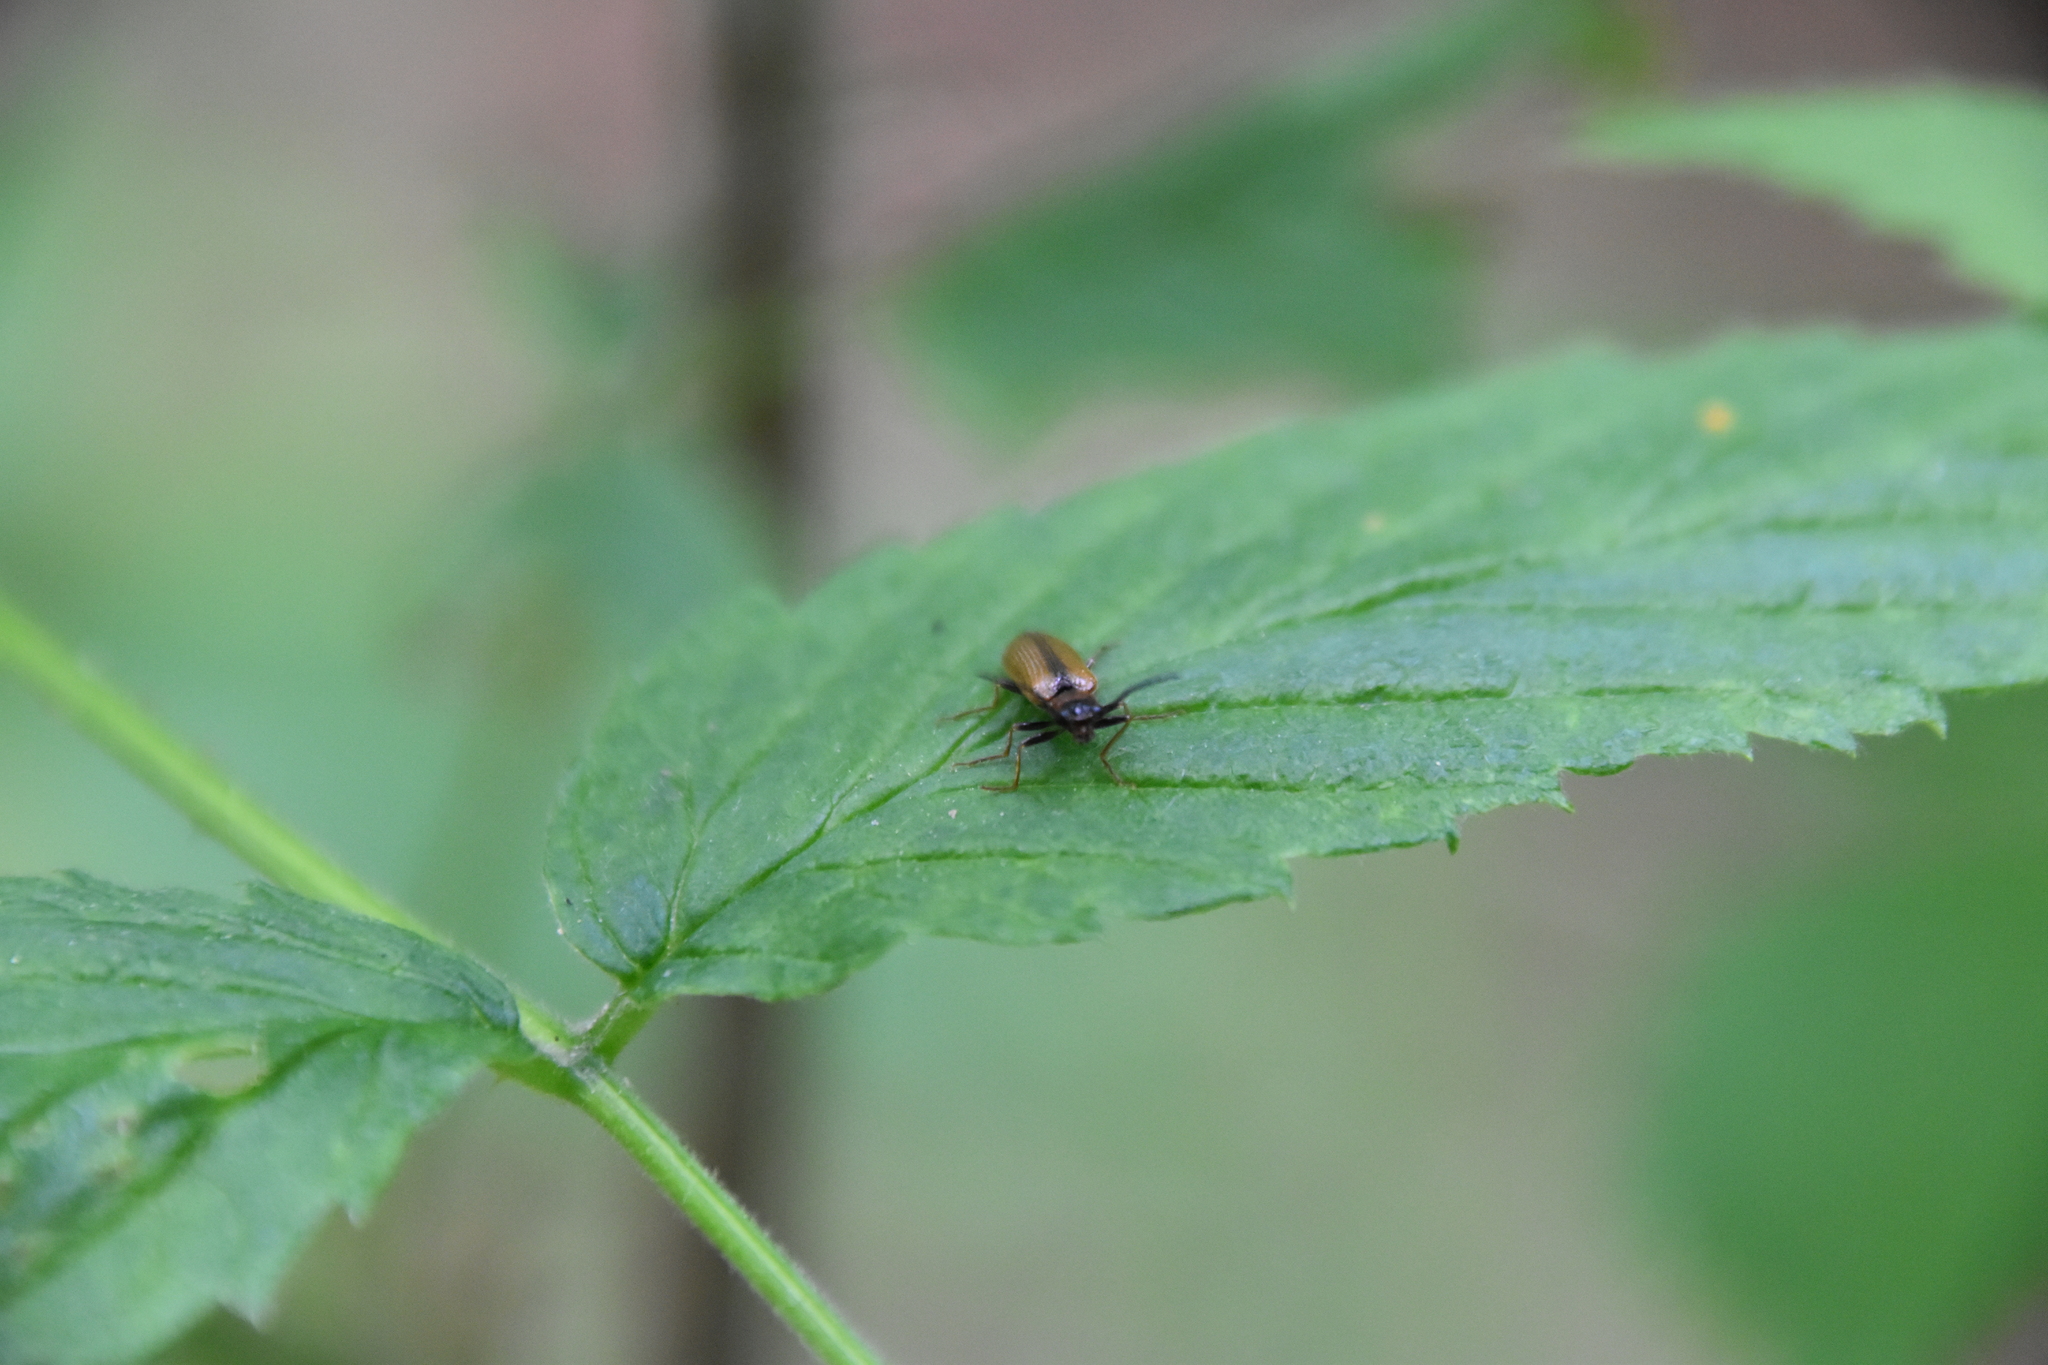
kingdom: Animalia
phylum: Arthropoda
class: Insecta
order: Coleoptera
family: Elateridae
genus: Denticollis
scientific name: Denticollis linearis
